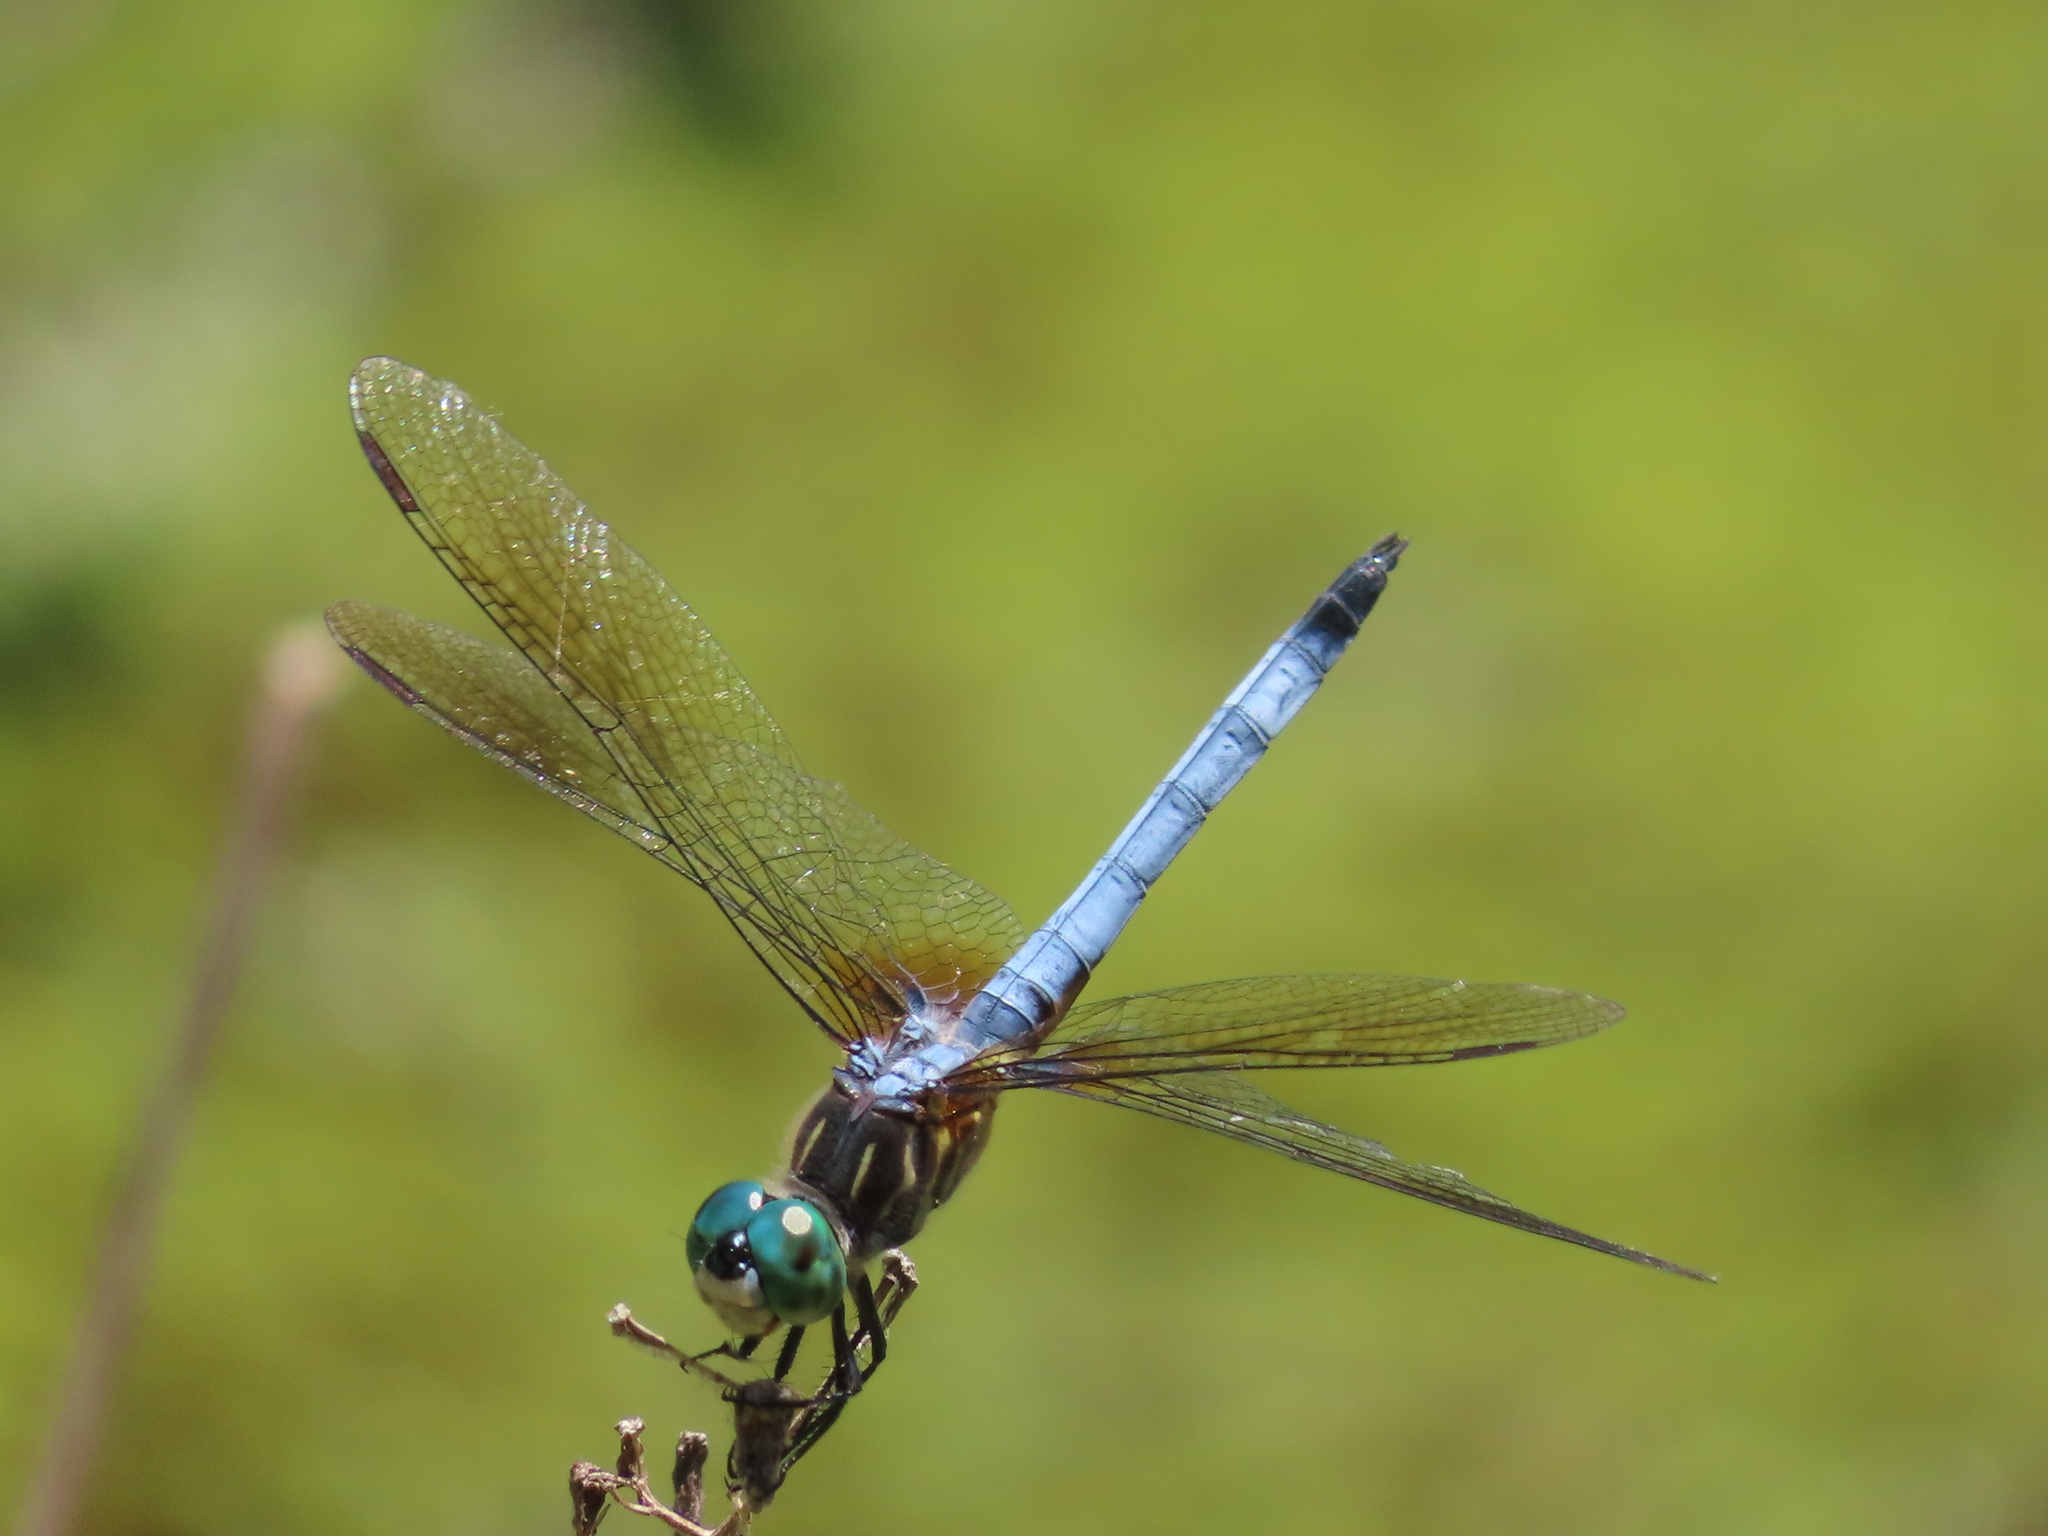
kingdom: Animalia
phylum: Arthropoda
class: Insecta
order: Odonata
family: Libellulidae
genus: Pachydiplax
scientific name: Pachydiplax longipennis
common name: Blue dasher
